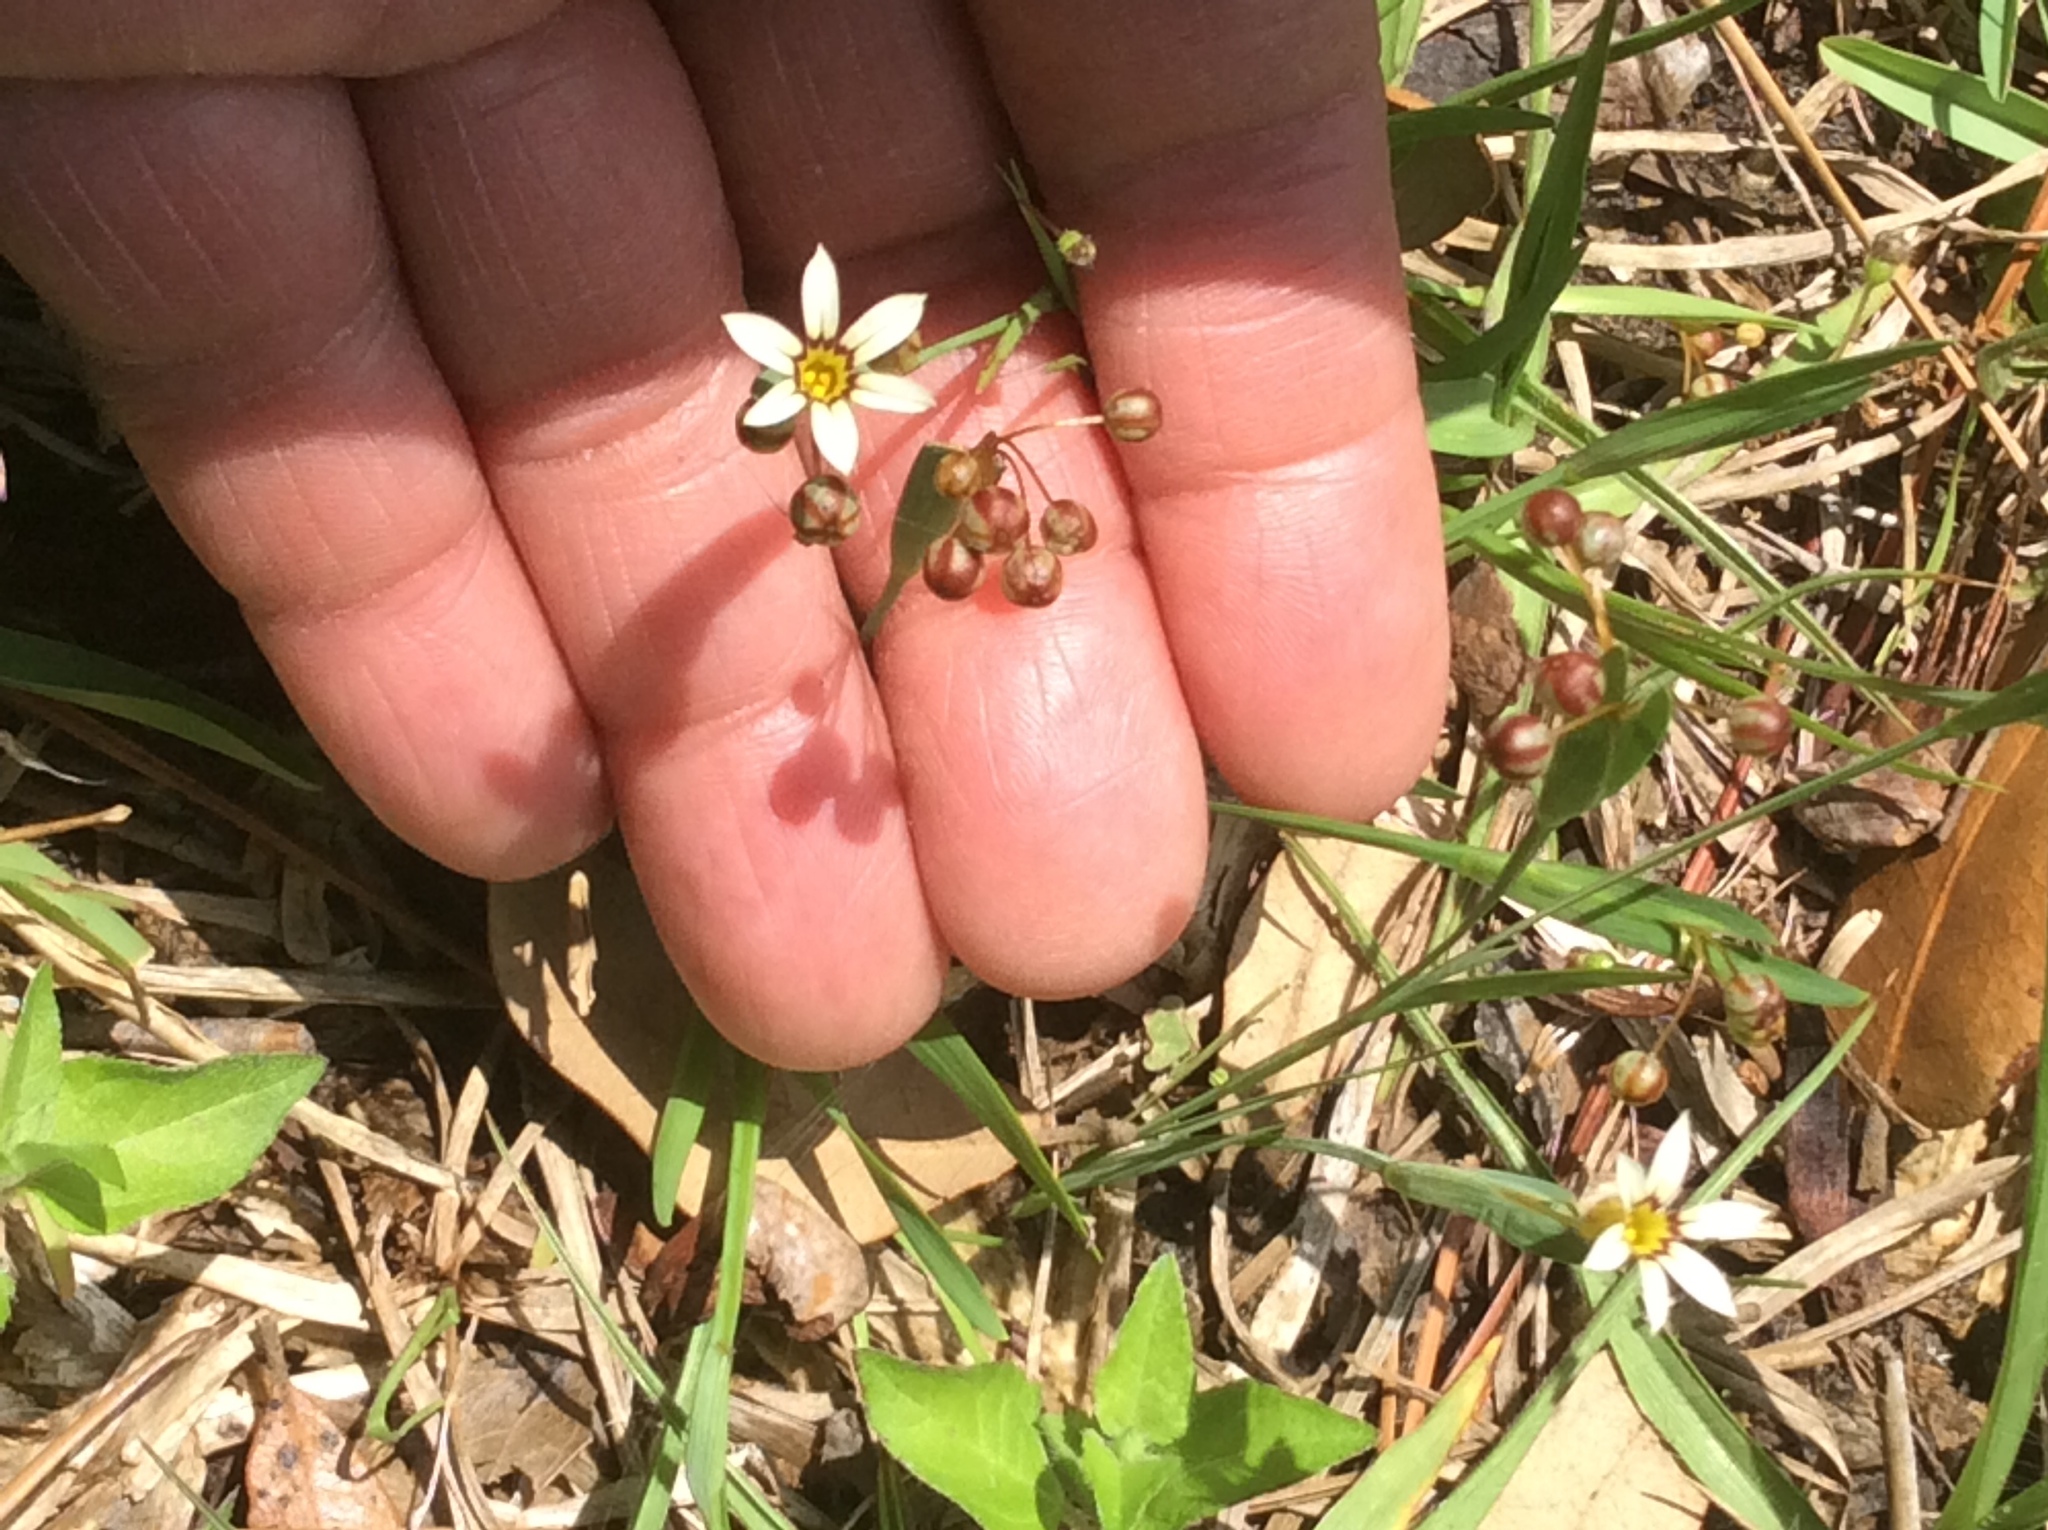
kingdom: Plantae
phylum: Tracheophyta
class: Liliopsida
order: Asparagales
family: Iridaceae
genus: Sisyrinchium
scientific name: Sisyrinchium micranthum
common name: Bermuda pigroot
